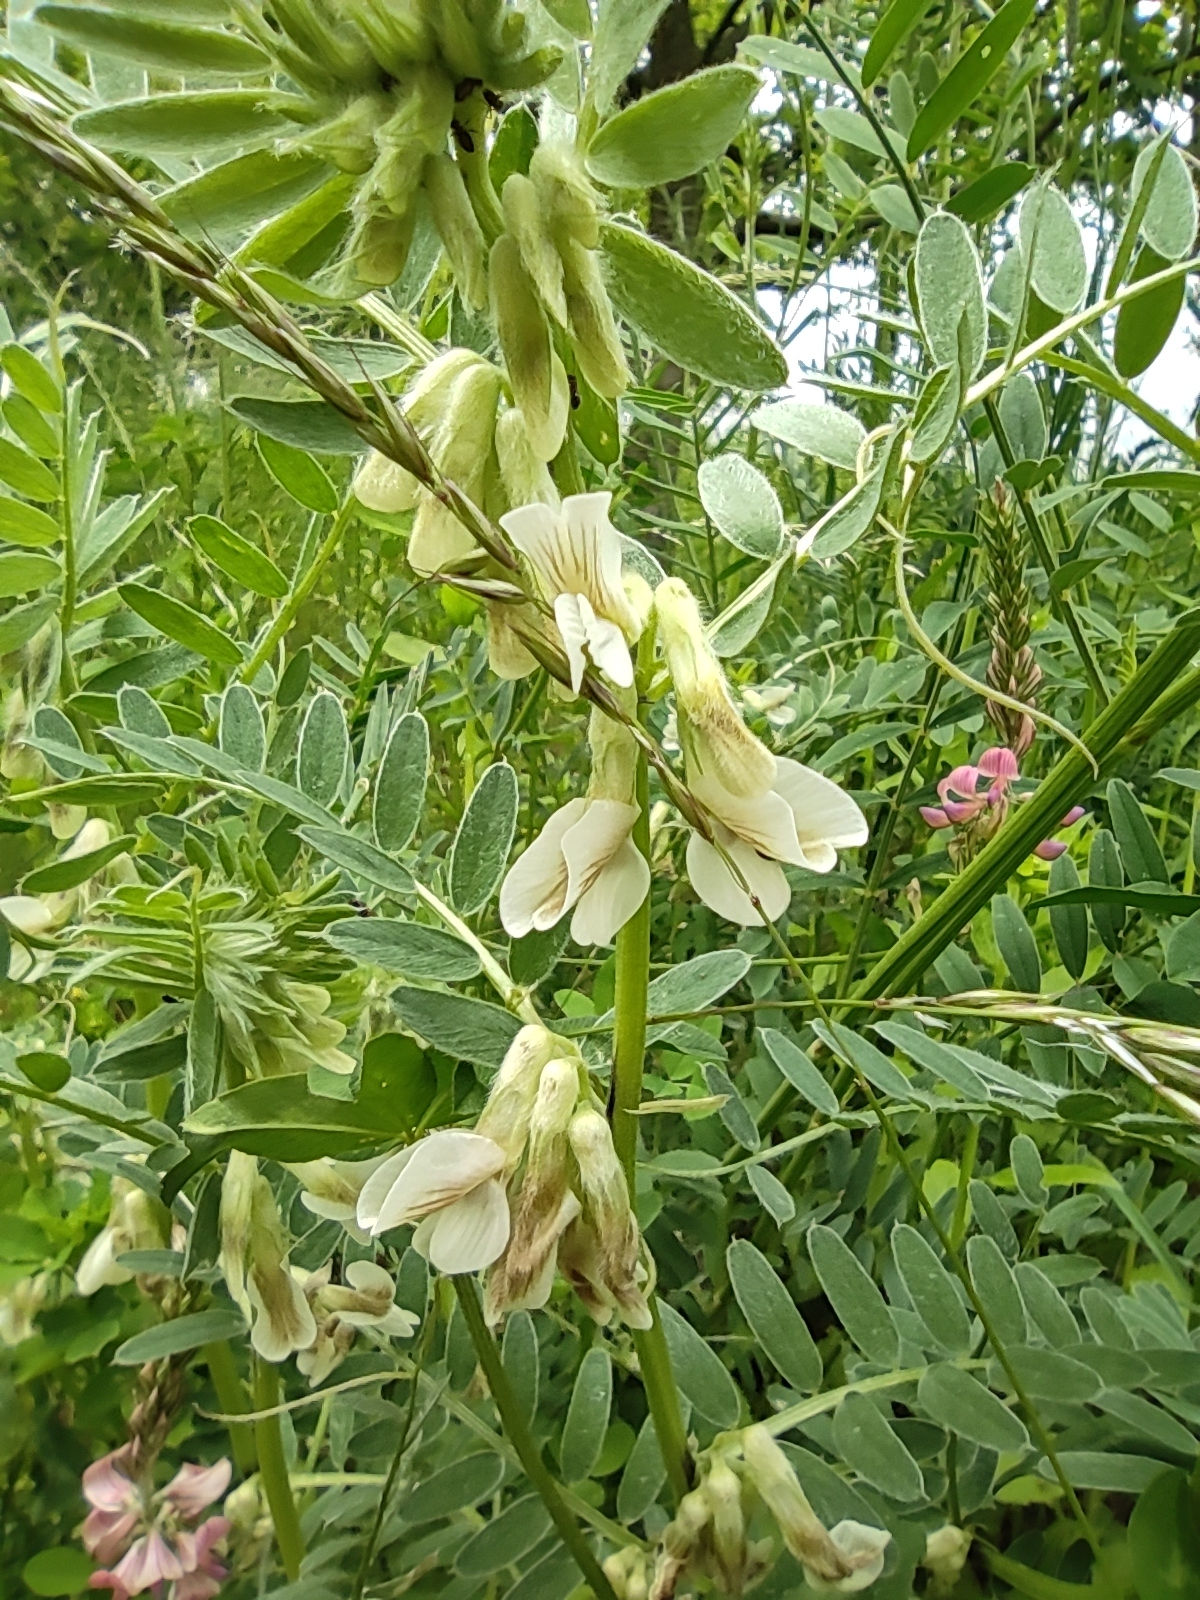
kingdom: Plantae
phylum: Tracheophyta
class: Magnoliopsida
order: Fabales
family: Fabaceae
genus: Vicia
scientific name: Vicia pannonica
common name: Hungarian vetch
